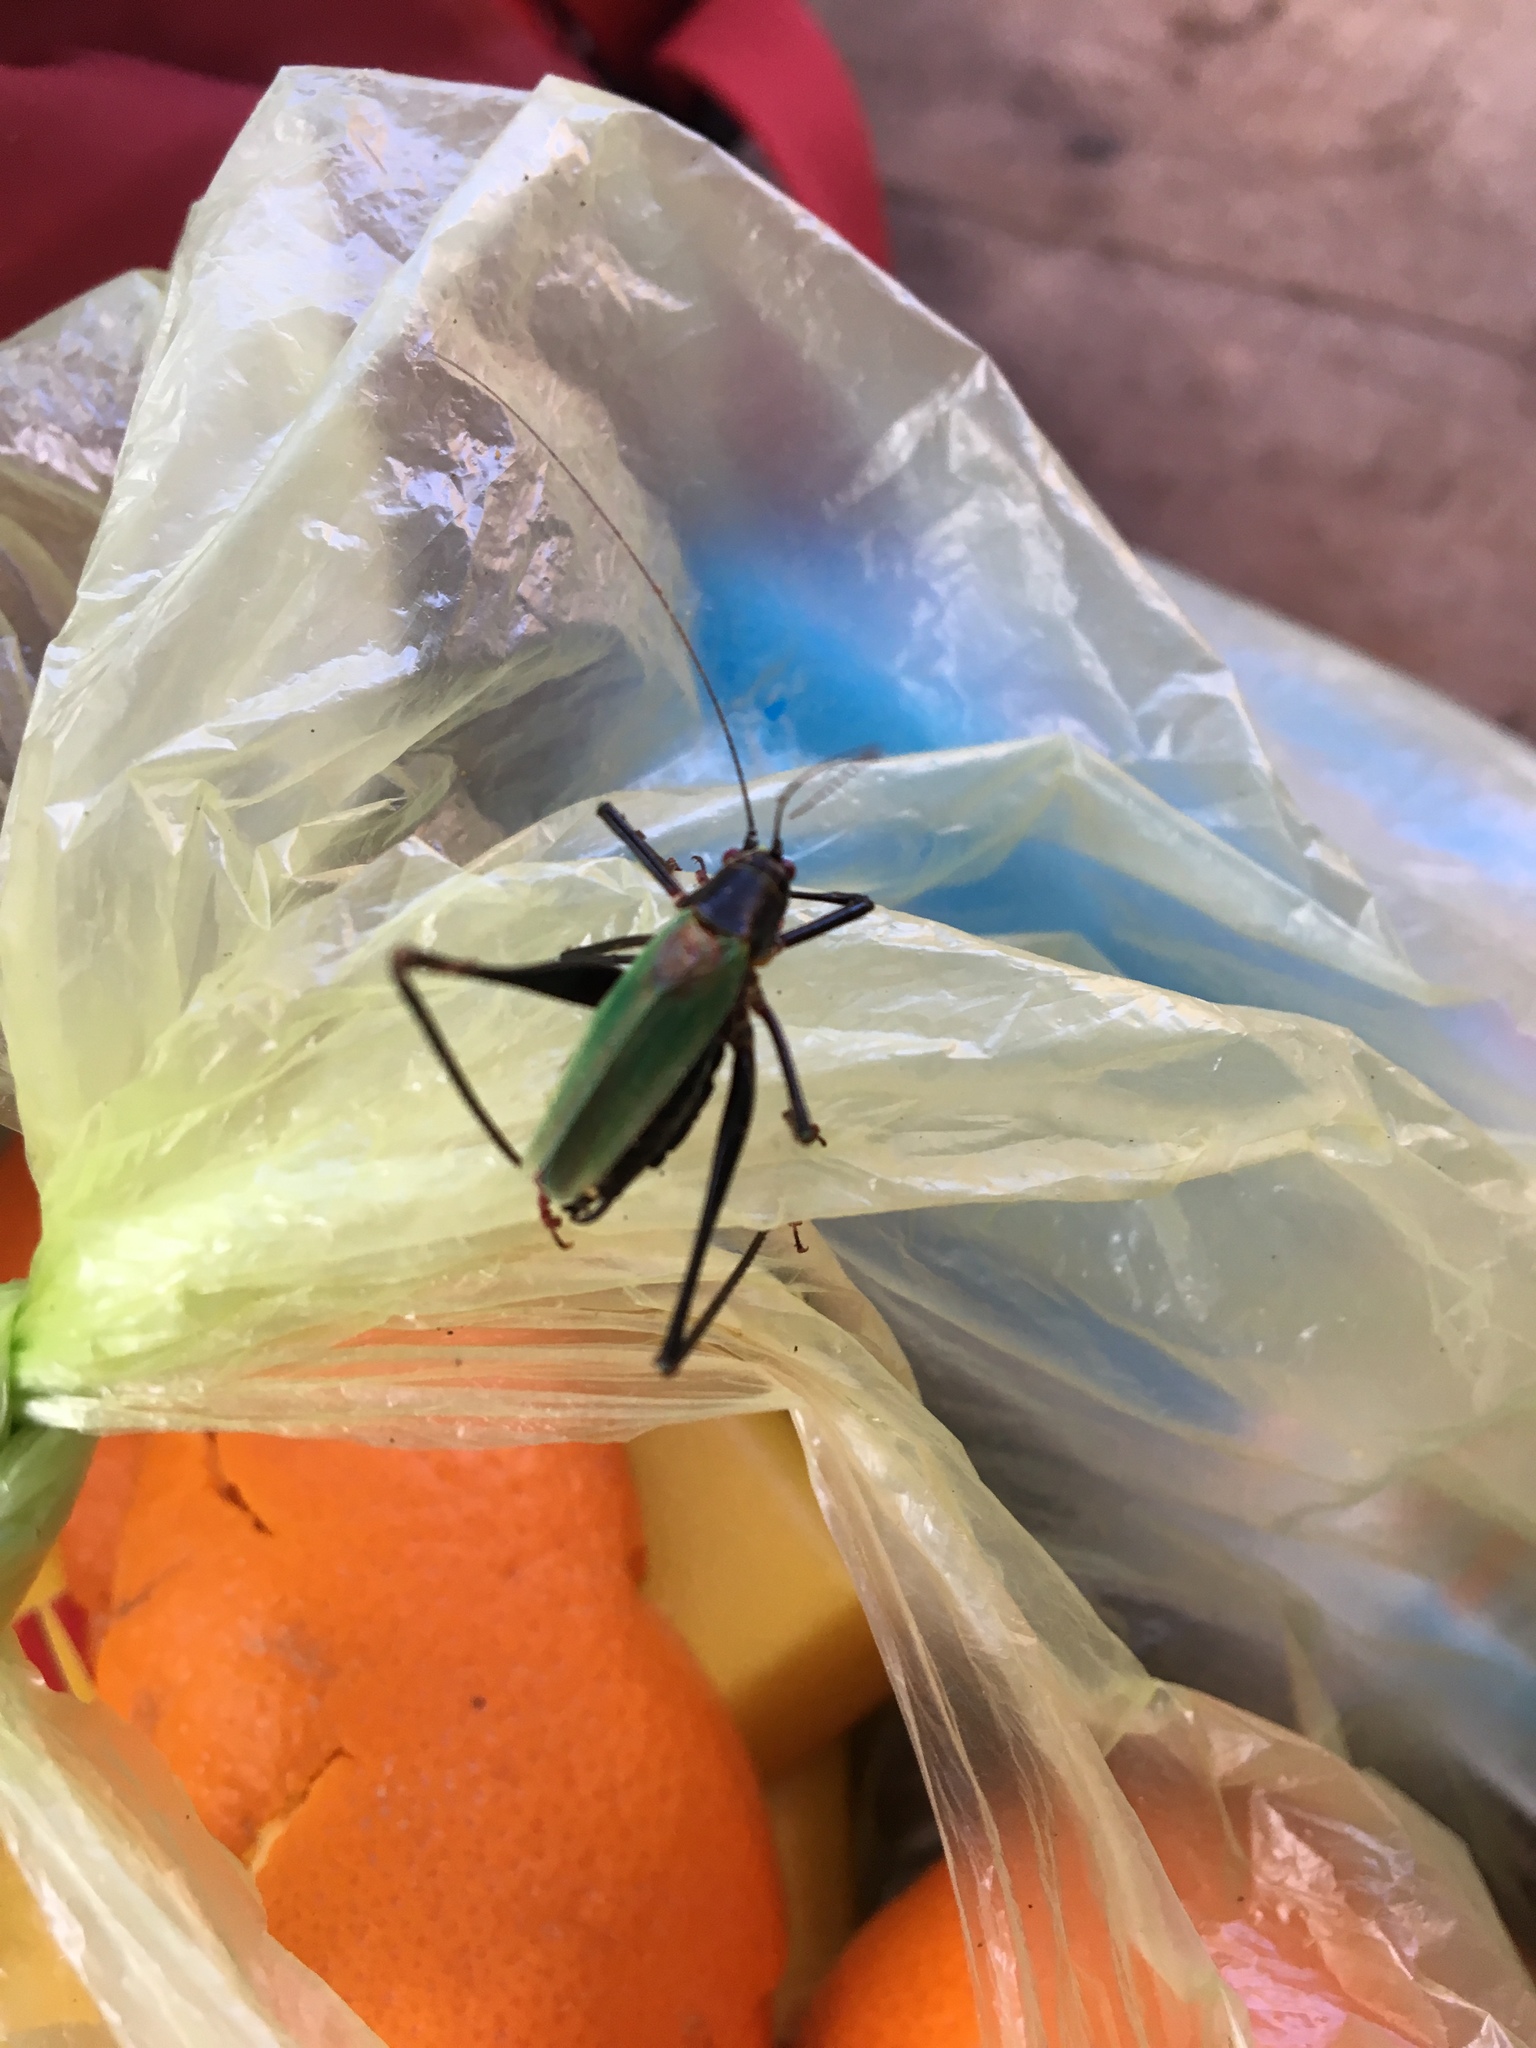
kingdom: Animalia
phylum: Arthropoda
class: Insecta
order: Orthoptera
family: Tettigoniidae
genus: Stenophyllia
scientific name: Stenophyllia modesta
